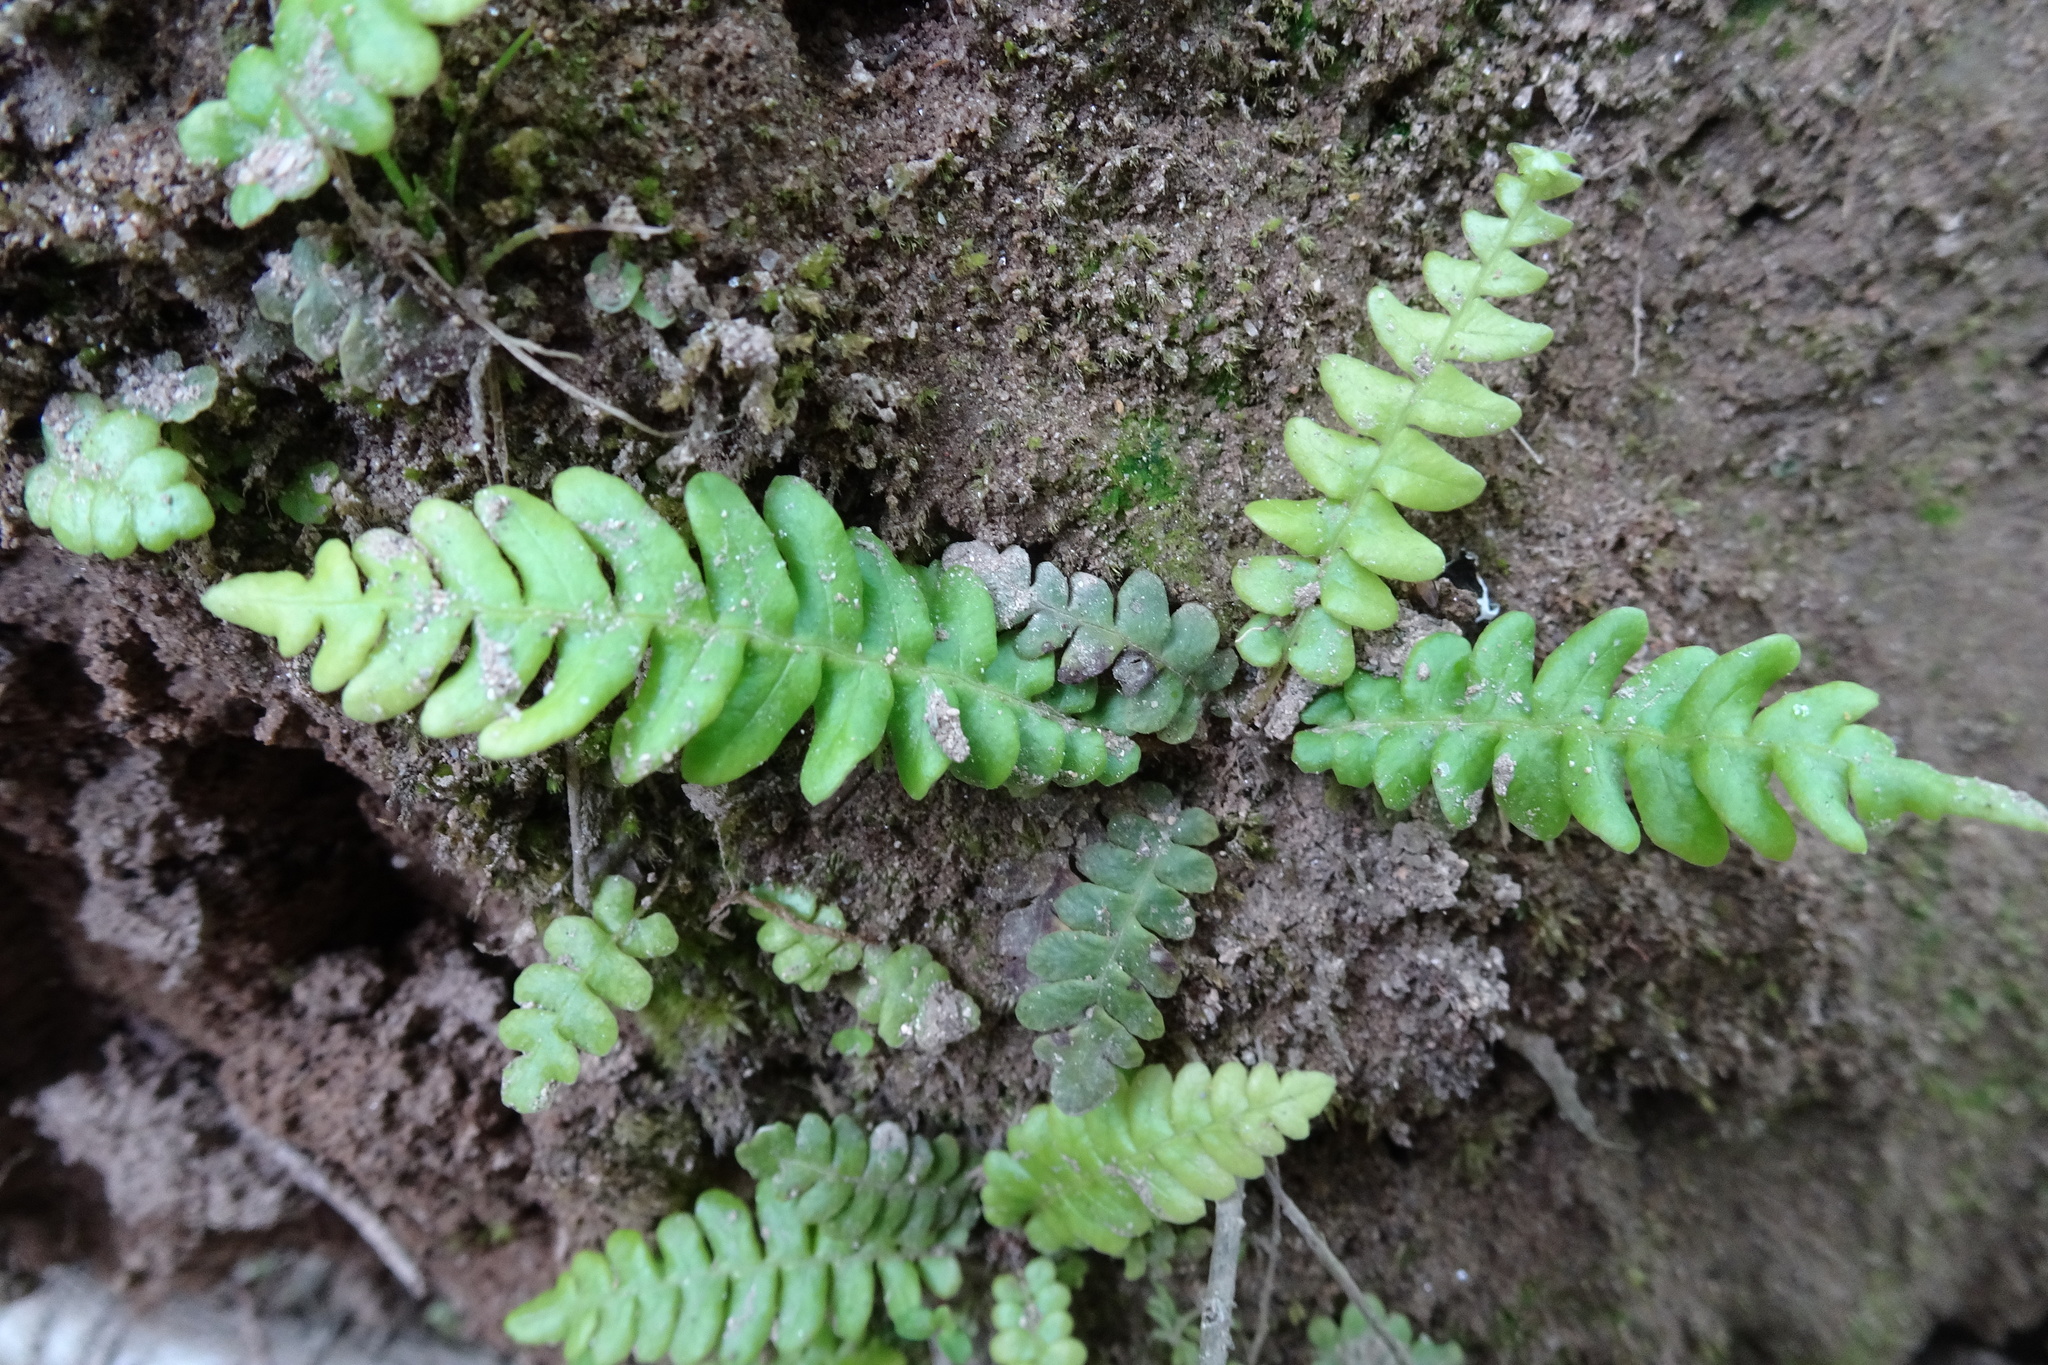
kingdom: Plantae
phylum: Tracheophyta
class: Polypodiopsida
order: Polypodiales
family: Blechnaceae
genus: Struthiopteris
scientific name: Struthiopteris spicant
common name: Deer fern
